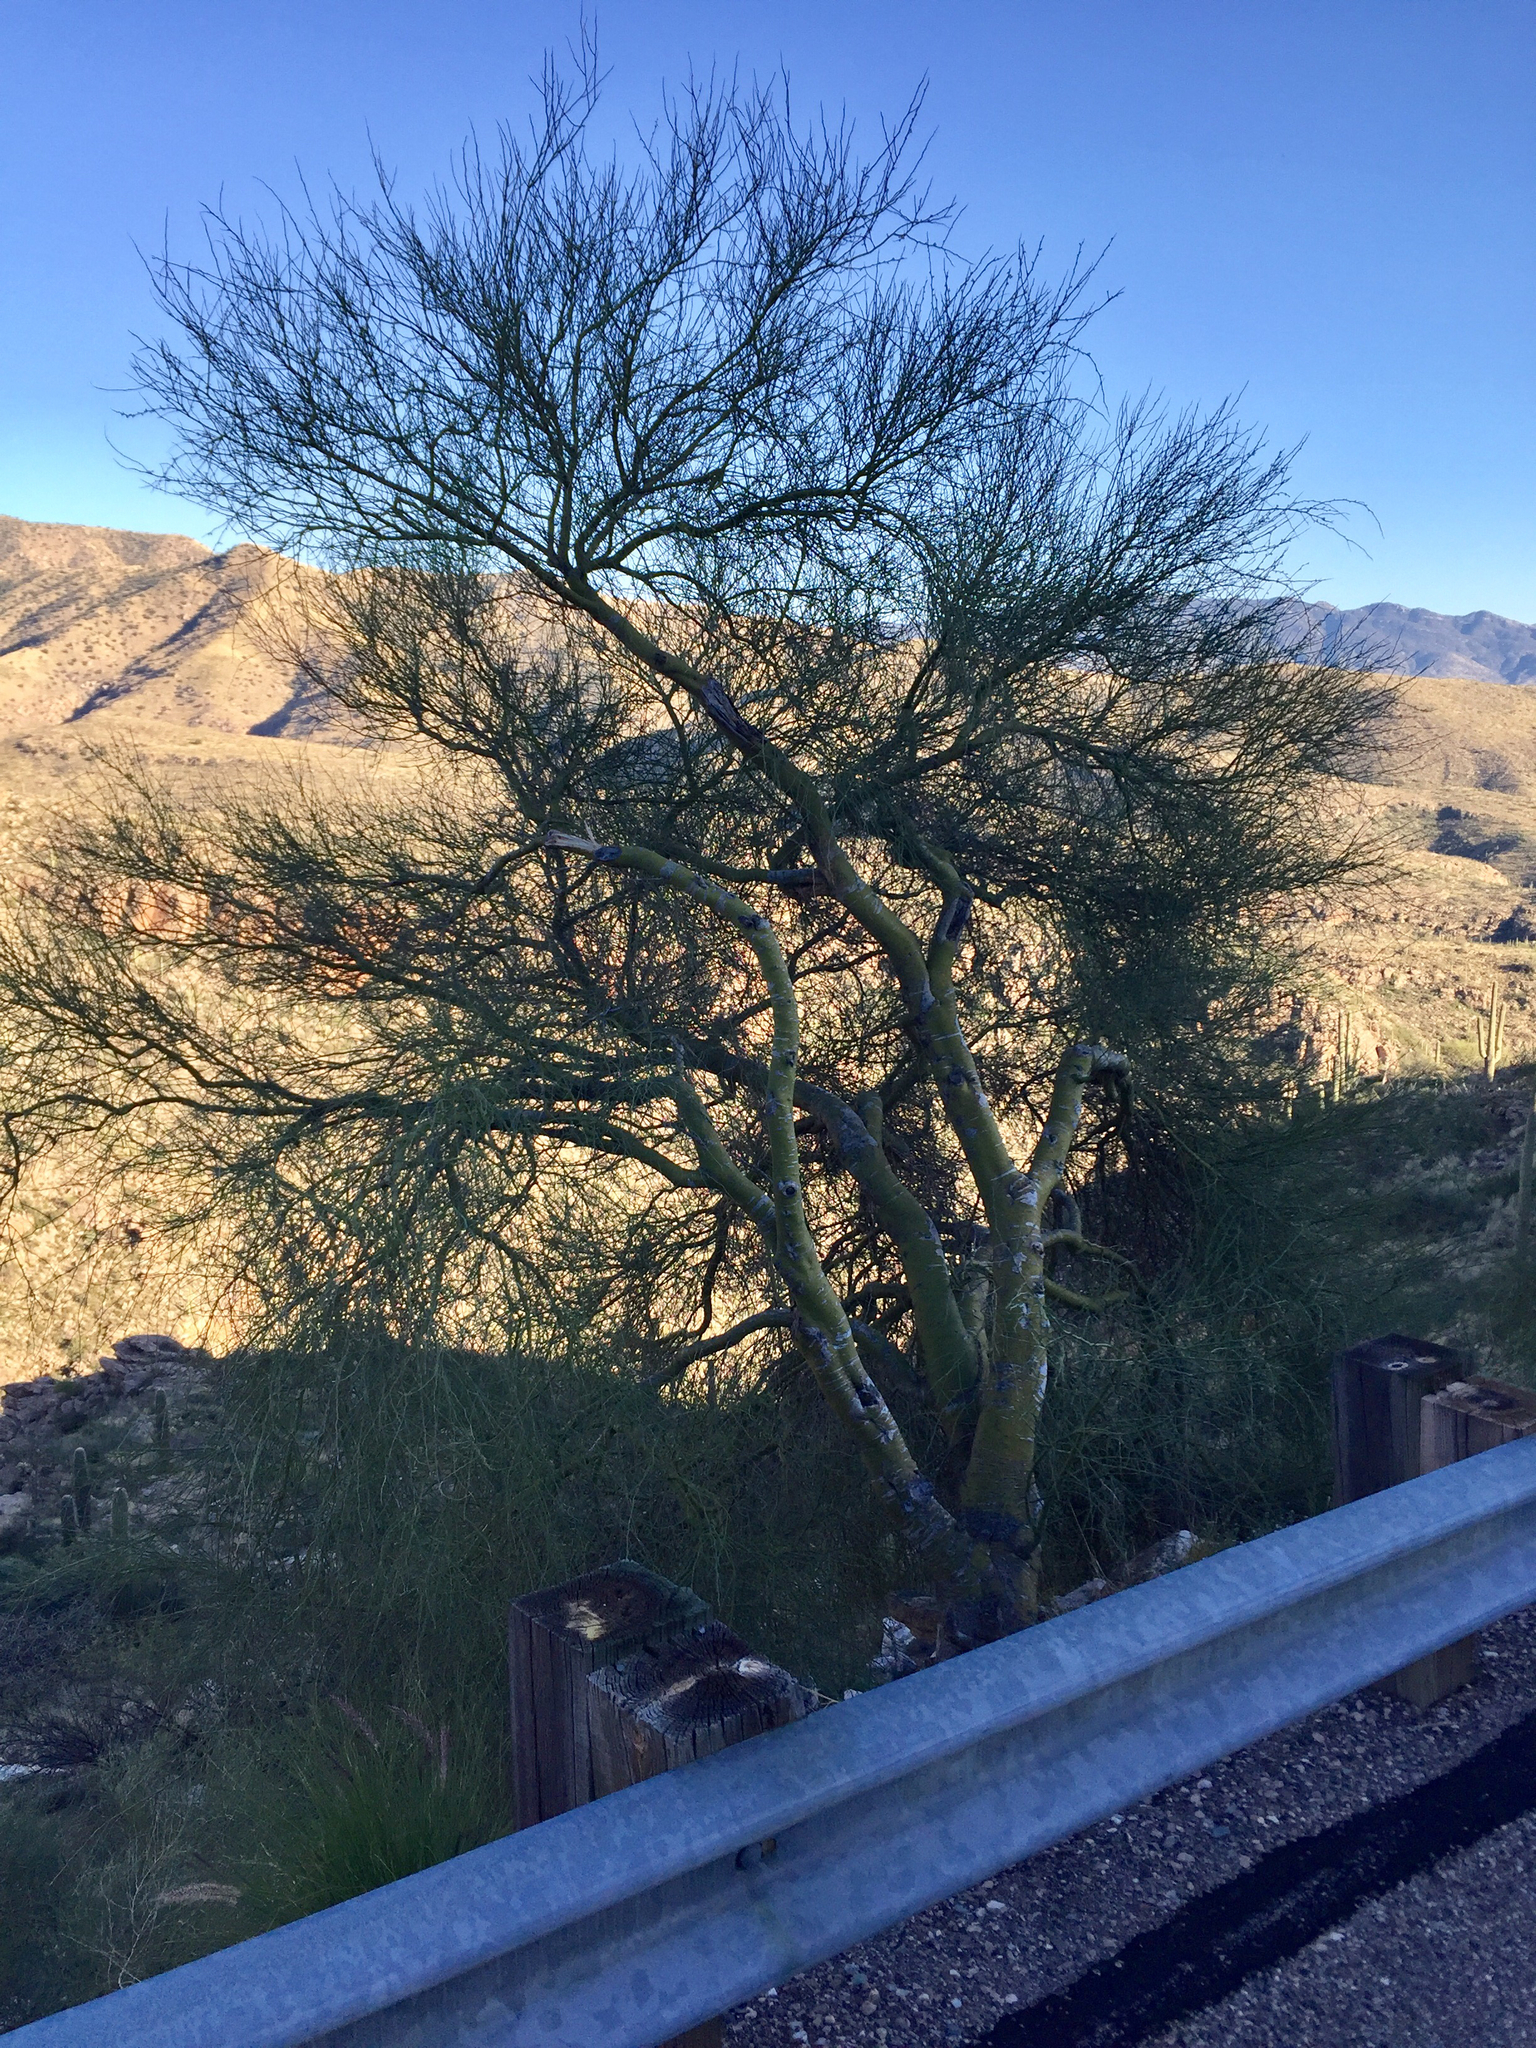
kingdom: Plantae
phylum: Tracheophyta
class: Magnoliopsida
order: Fabales
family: Fabaceae
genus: Parkinsonia
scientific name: Parkinsonia microphylla
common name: Yellow paloverde
